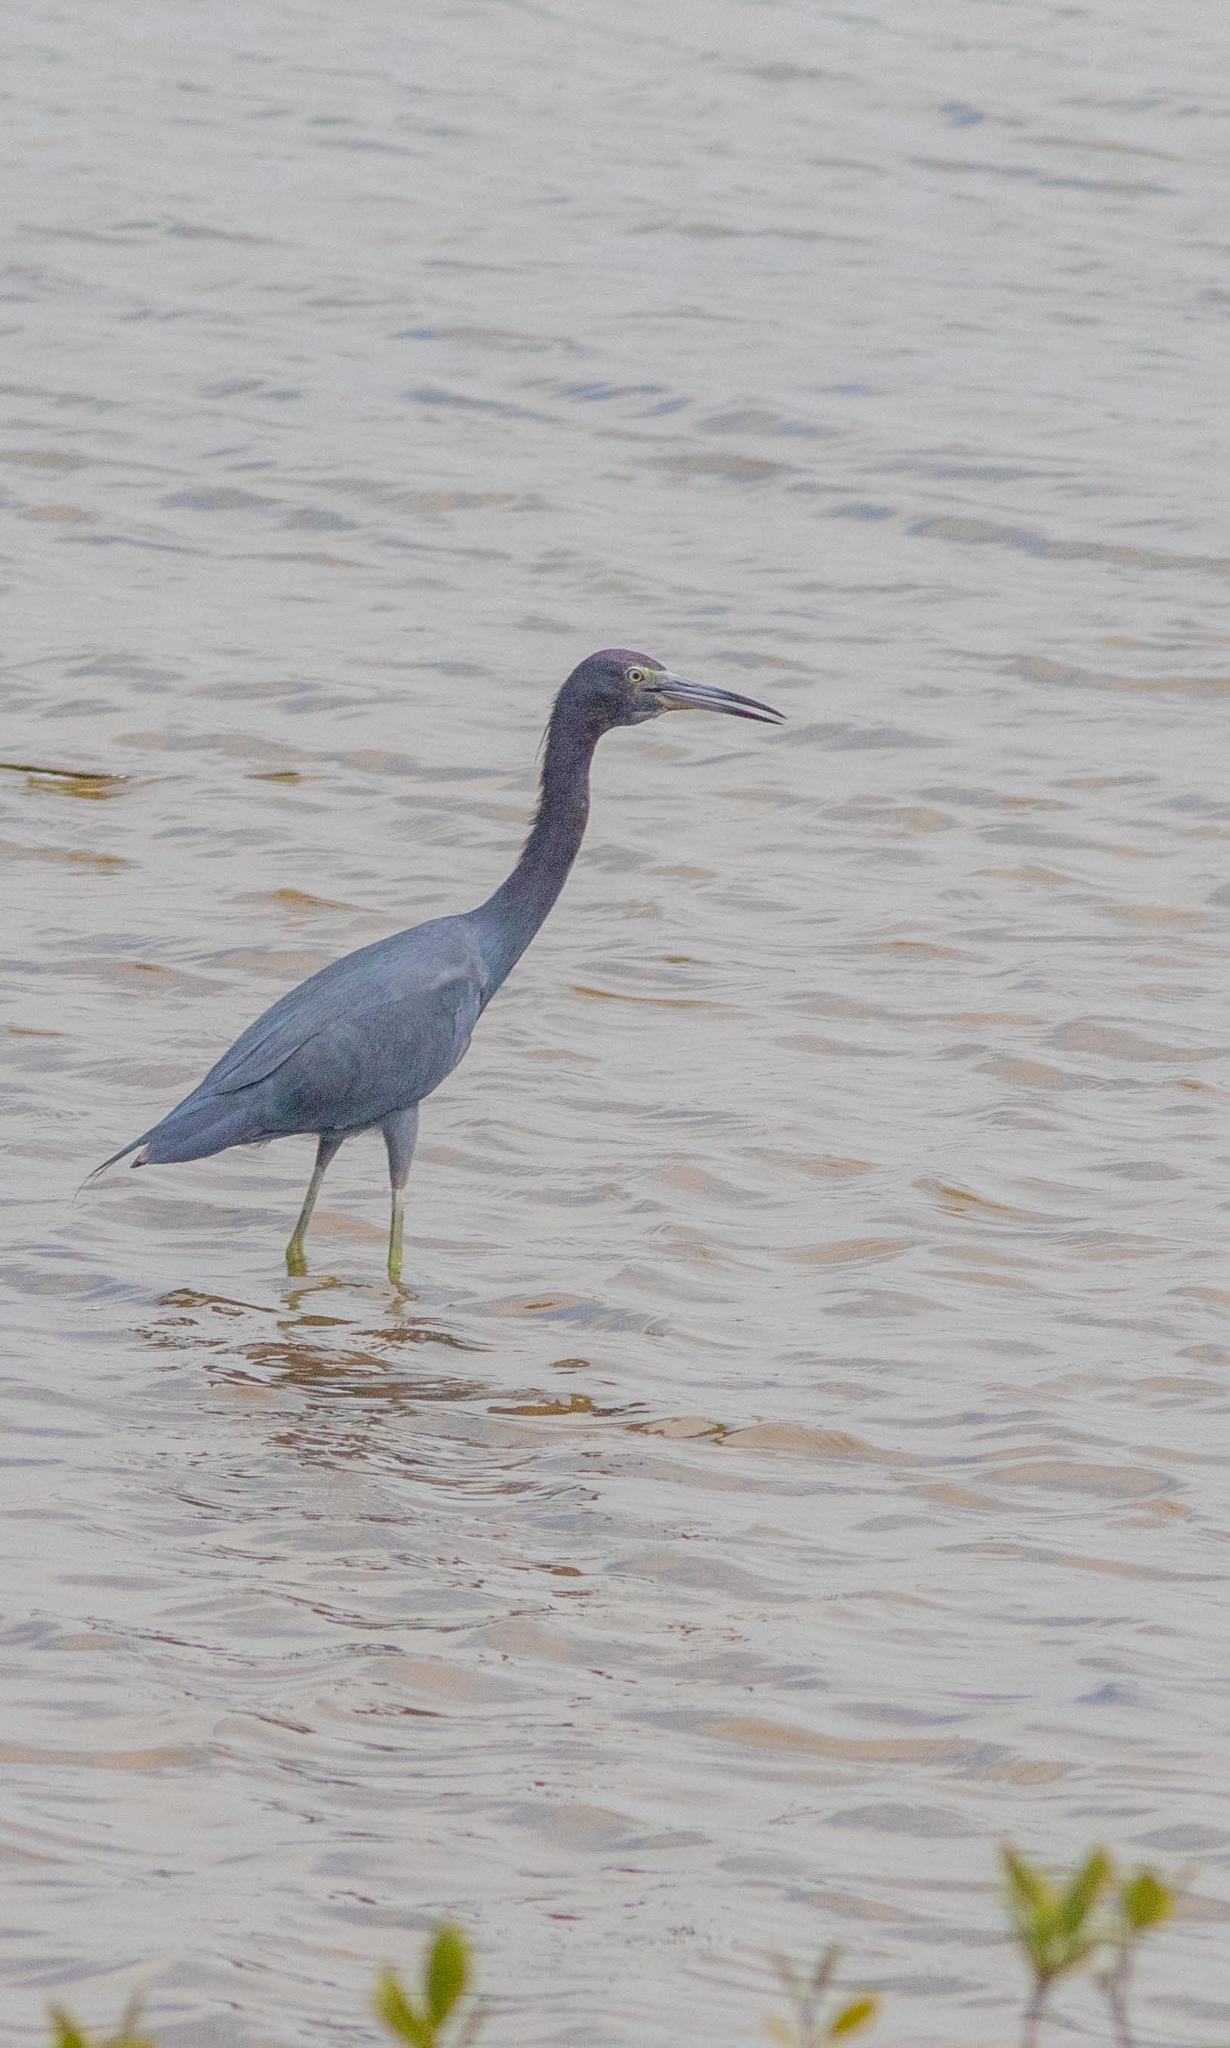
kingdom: Animalia
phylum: Chordata
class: Aves
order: Pelecaniformes
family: Ardeidae
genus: Egretta
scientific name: Egretta caerulea
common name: Little blue heron
